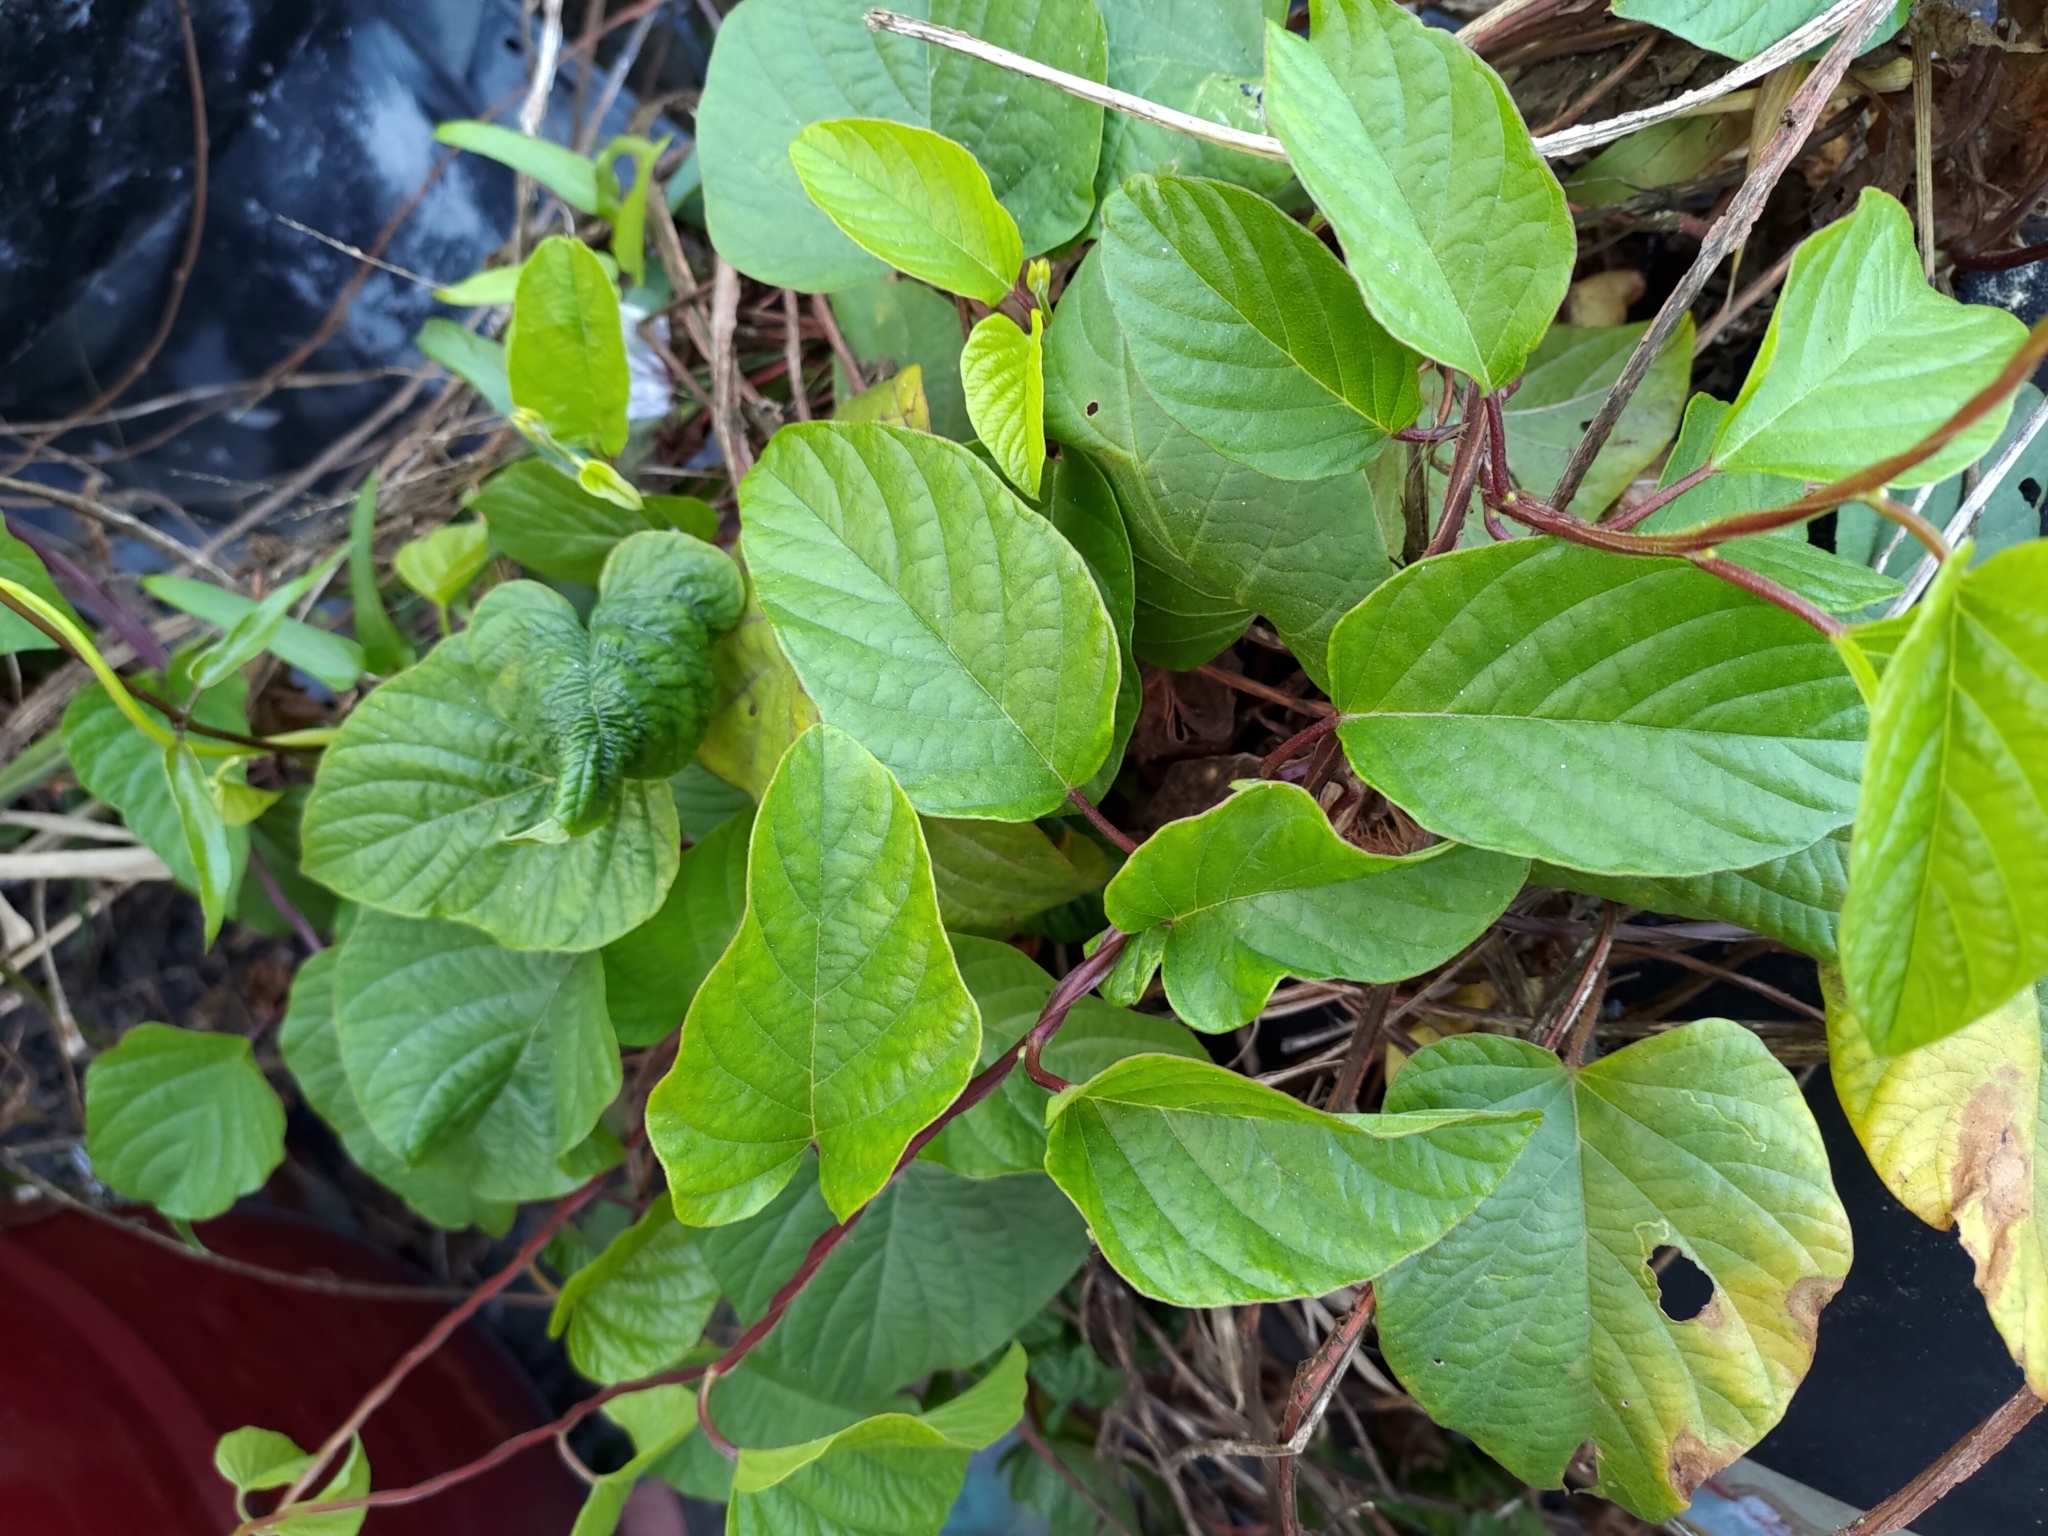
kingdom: Plantae
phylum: Tracheophyta
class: Magnoliopsida
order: Solanales
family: Convolvulaceae
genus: Operculina
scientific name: Operculina turpethum
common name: Transparent wood-rose
